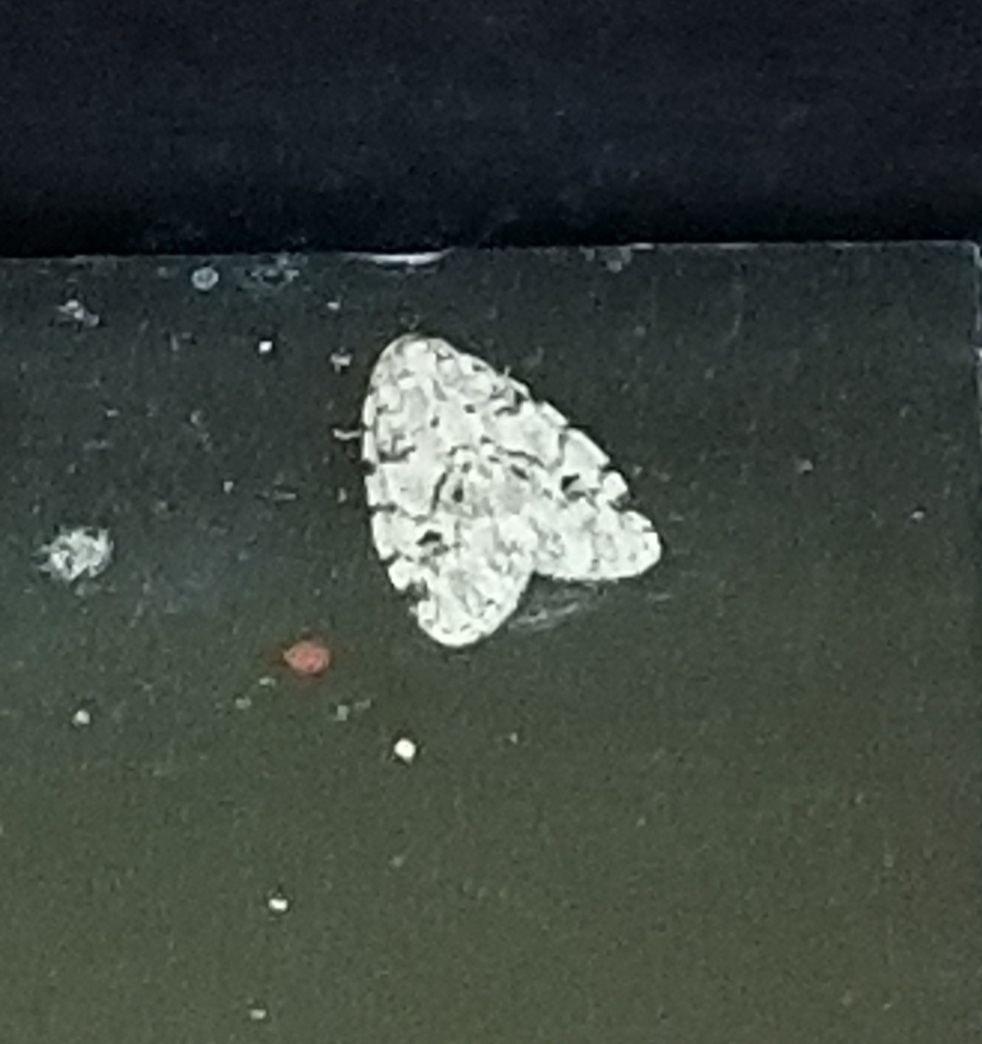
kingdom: Animalia
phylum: Arthropoda
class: Insecta
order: Lepidoptera
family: Erebidae
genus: Clemensia
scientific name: Clemensia albata
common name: Little white lichen moth
